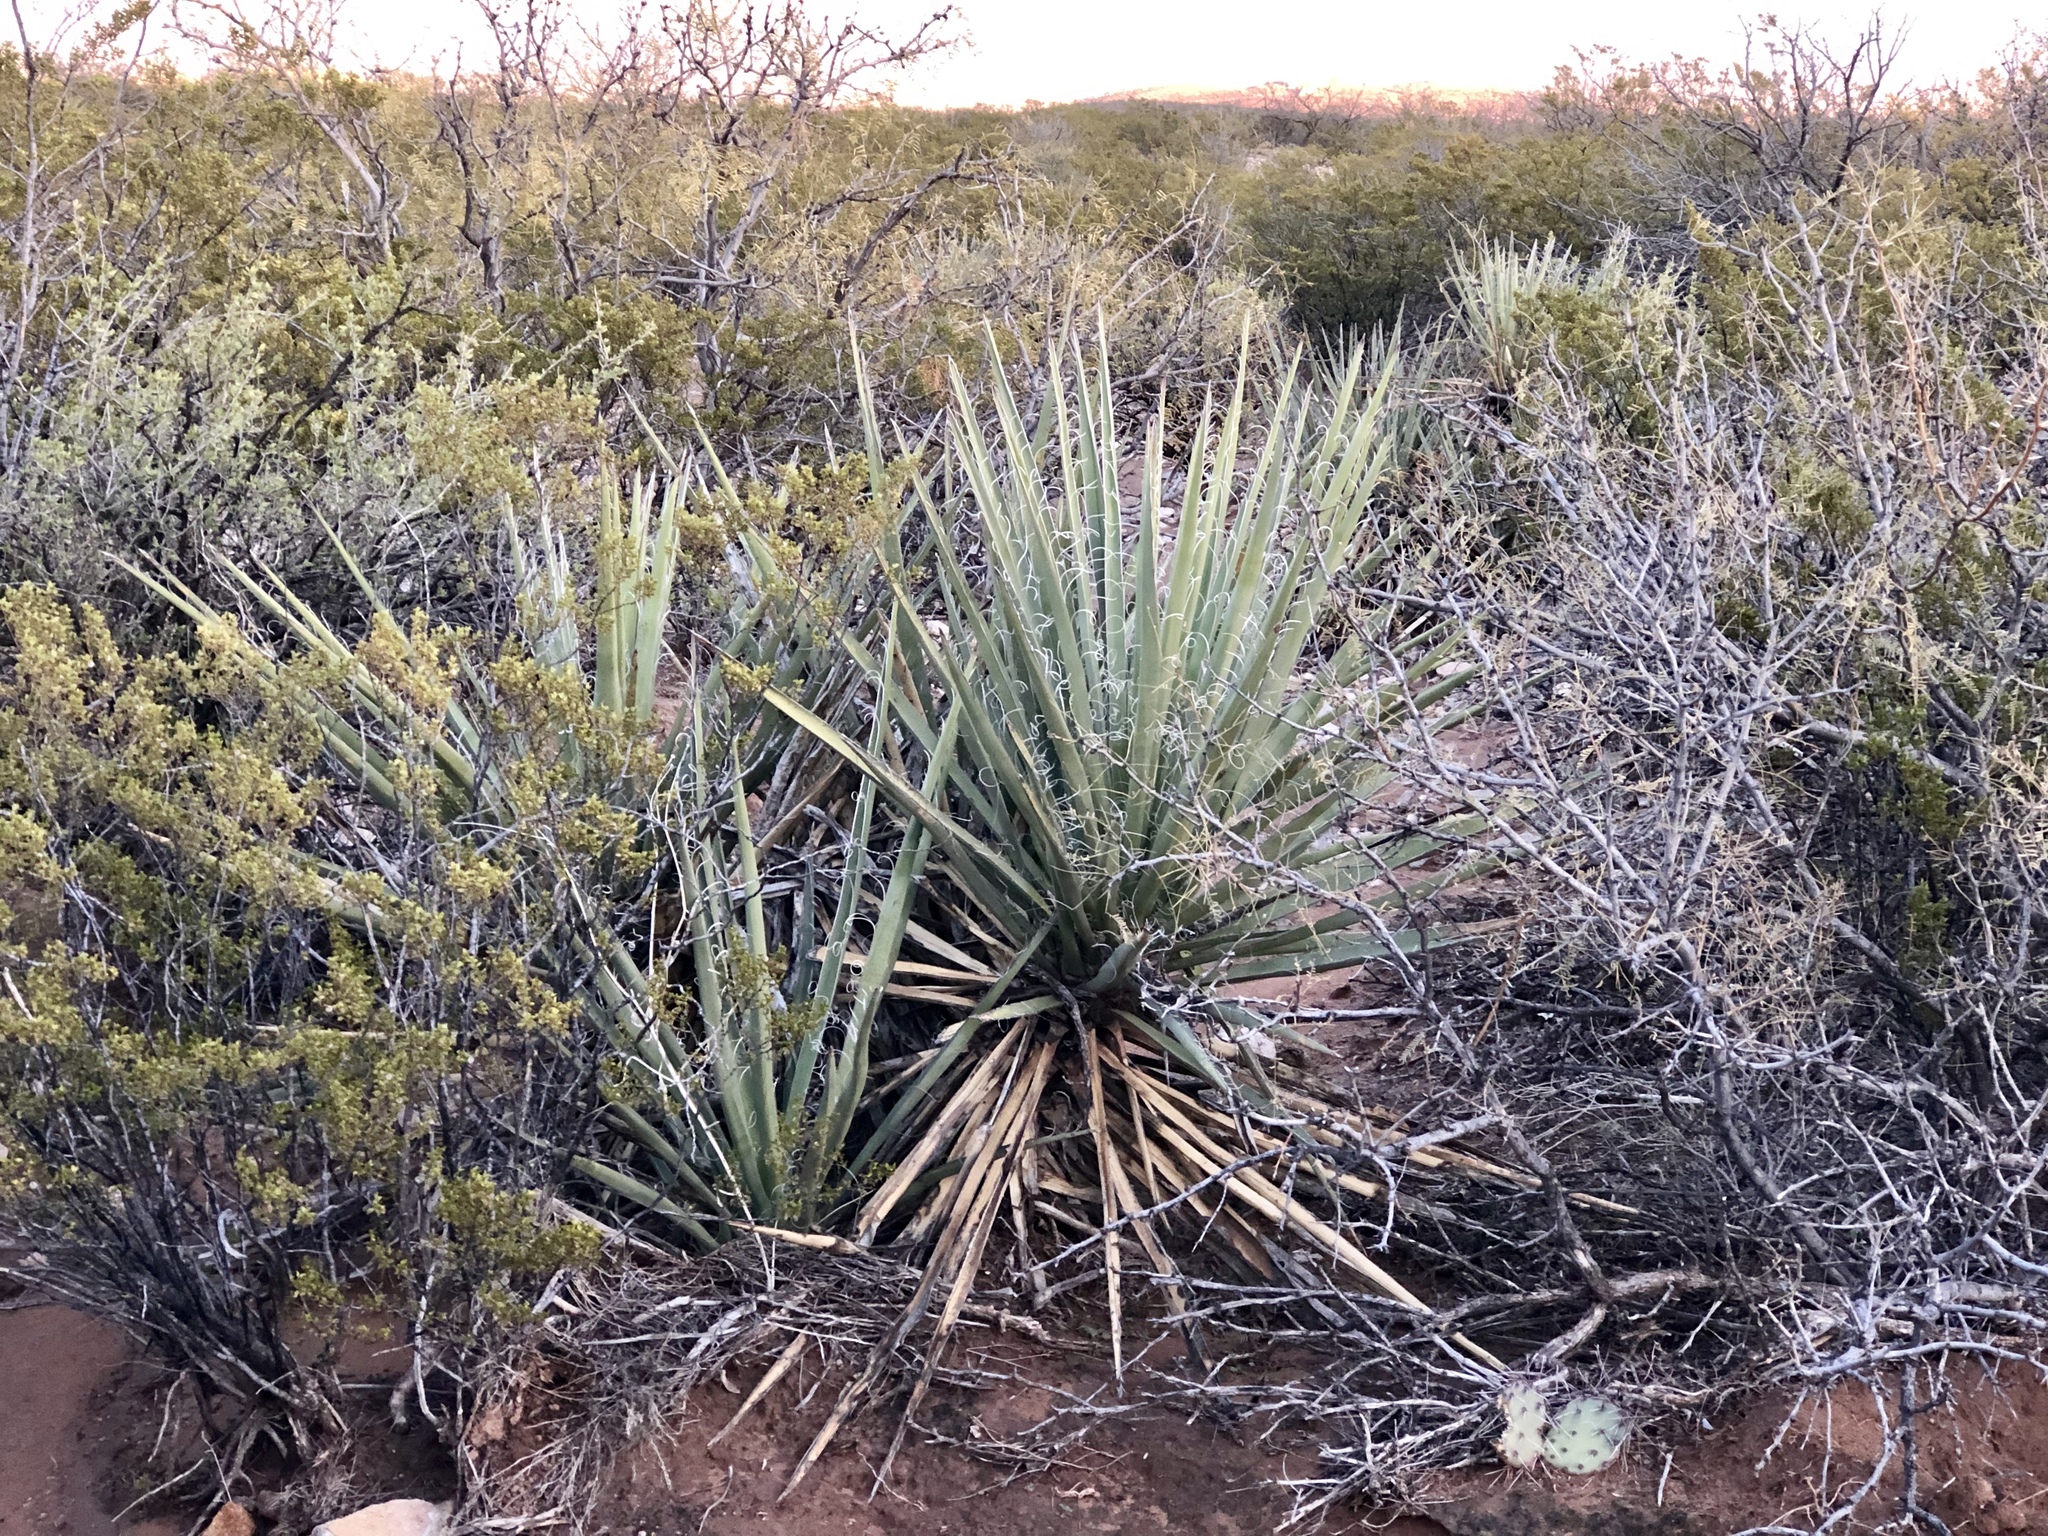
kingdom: Plantae
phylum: Tracheophyta
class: Liliopsida
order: Asparagales
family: Asparagaceae
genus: Yucca
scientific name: Yucca elata
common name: Palmella
